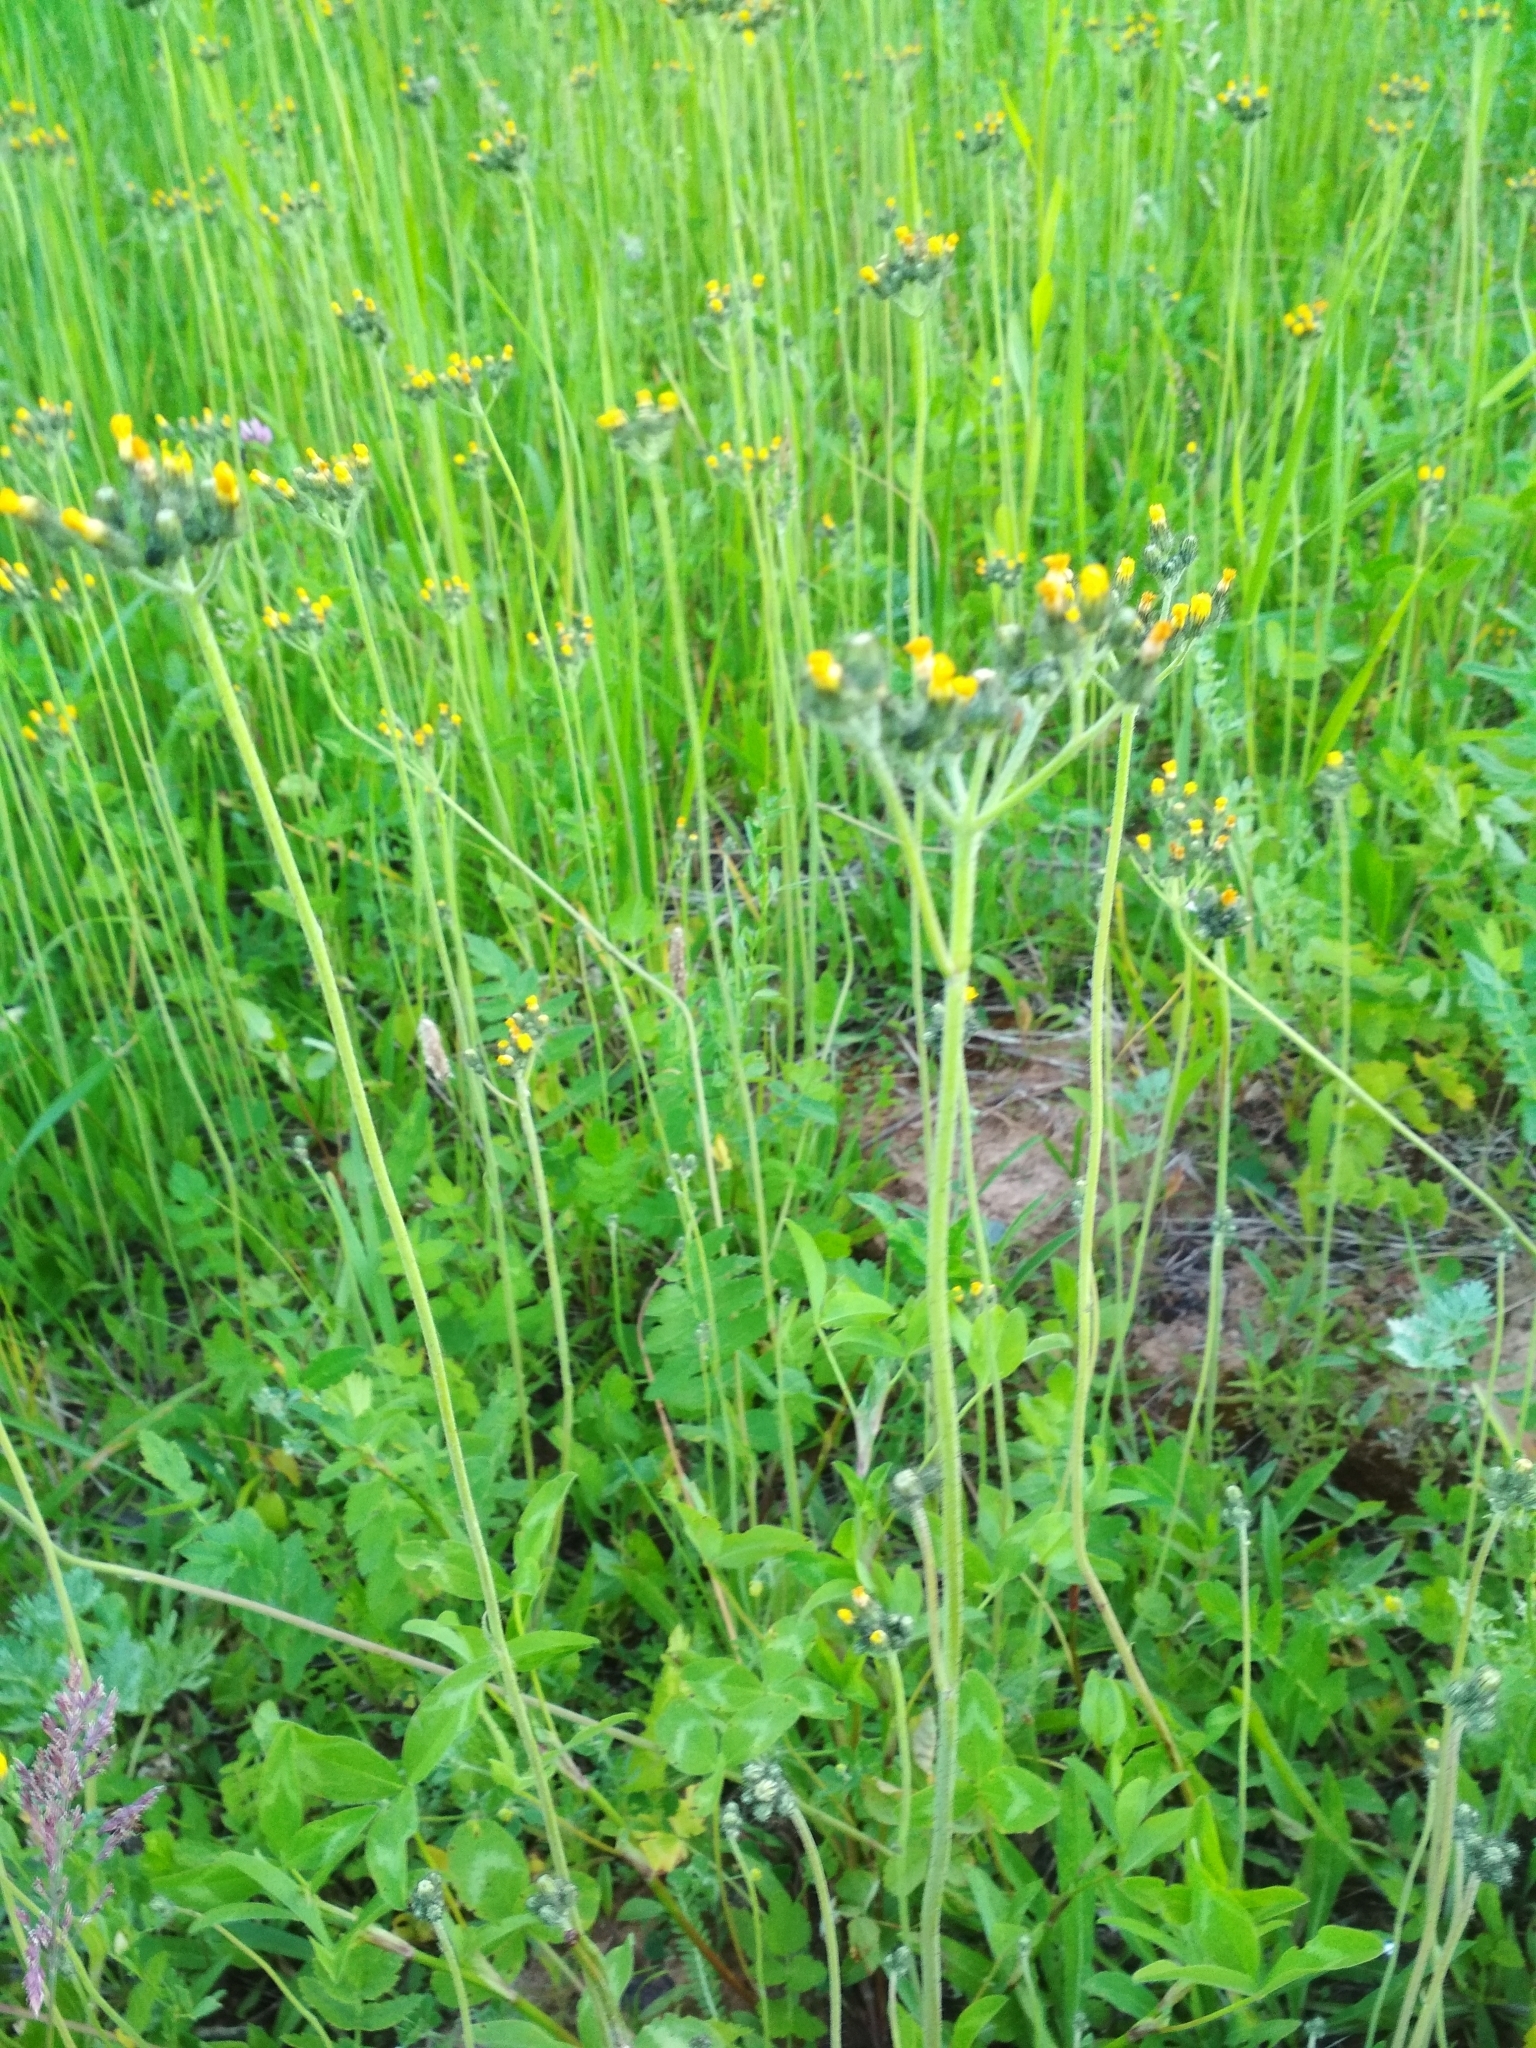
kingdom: Plantae
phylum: Tracheophyta
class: Magnoliopsida
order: Asterales
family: Asteraceae
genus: Pilosella
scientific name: Pilosella
